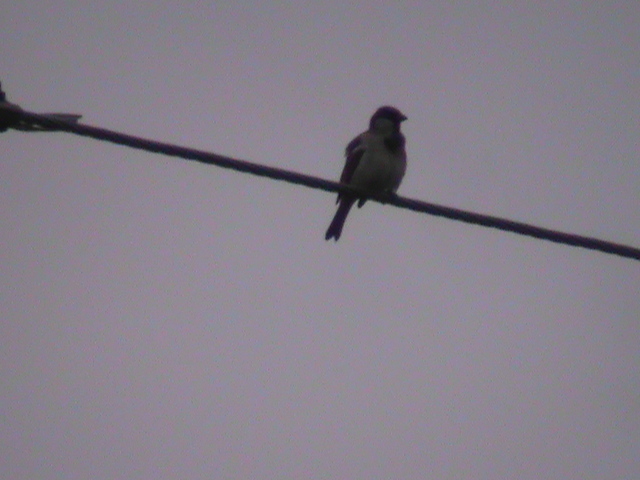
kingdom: Animalia
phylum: Chordata
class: Aves
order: Passeriformes
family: Passeridae
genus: Passer
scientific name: Passer domesticus
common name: House sparrow
